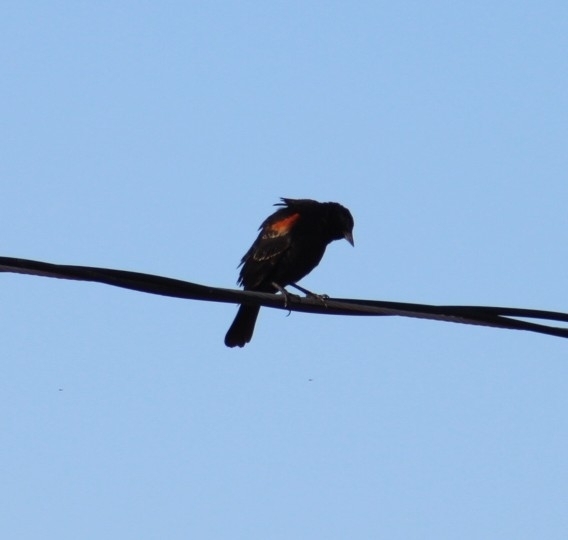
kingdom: Animalia
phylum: Chordata
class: Aves
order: Passeriformes
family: Icteridae
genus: Agelaius
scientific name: Agelaius phoeniceus
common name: Red-winged blackbird
